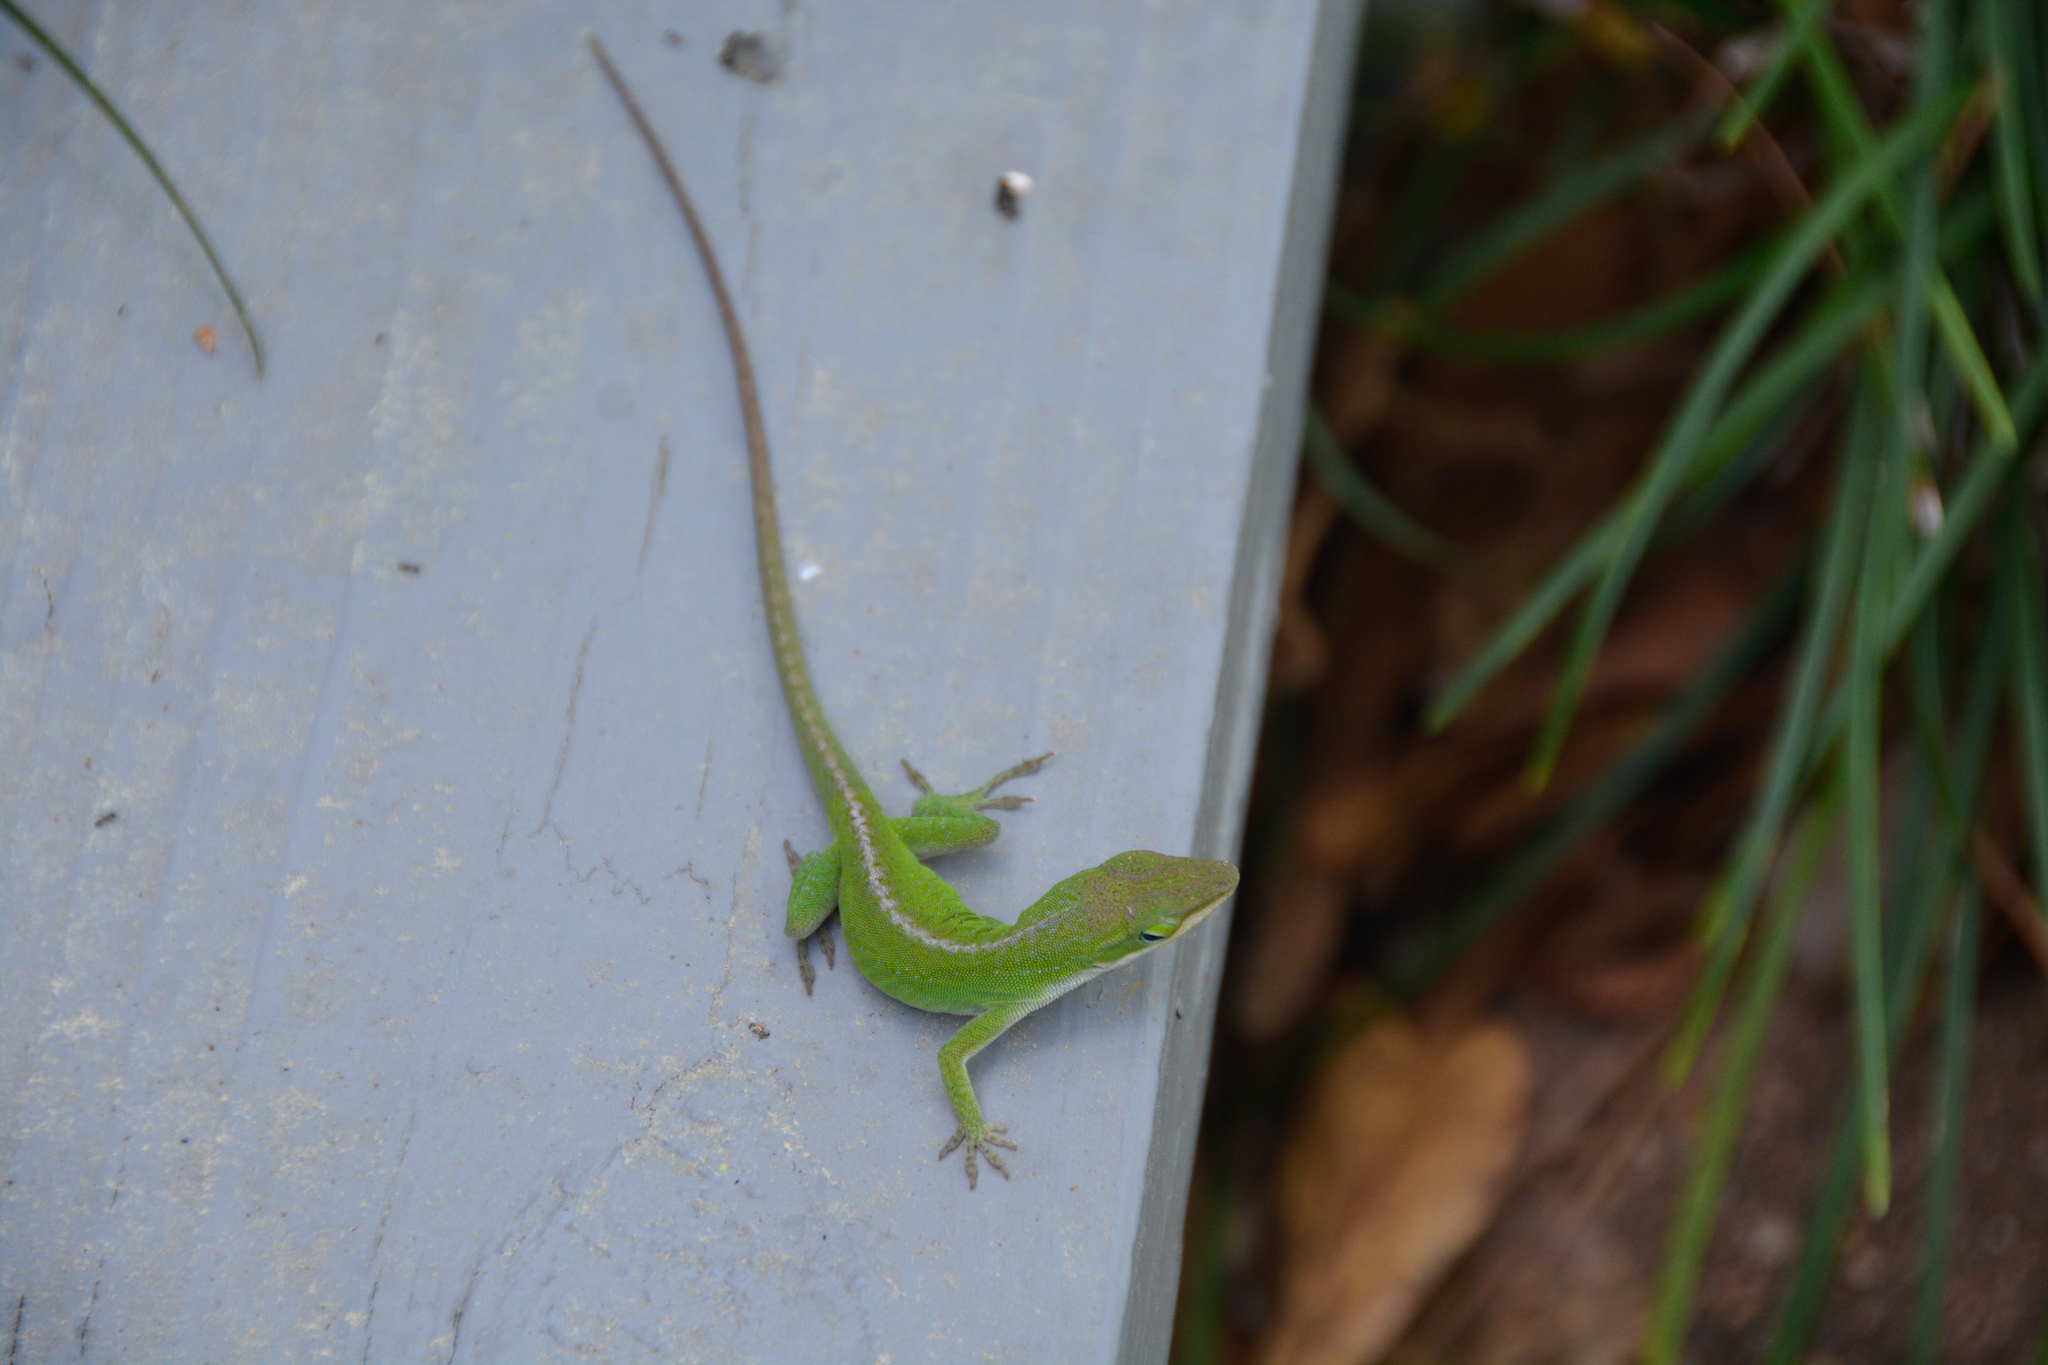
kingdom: Animalia
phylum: Chordata
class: Squamata
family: Dactyloidae
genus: Anolis
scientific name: Anolis carolinensis
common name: Green anole
